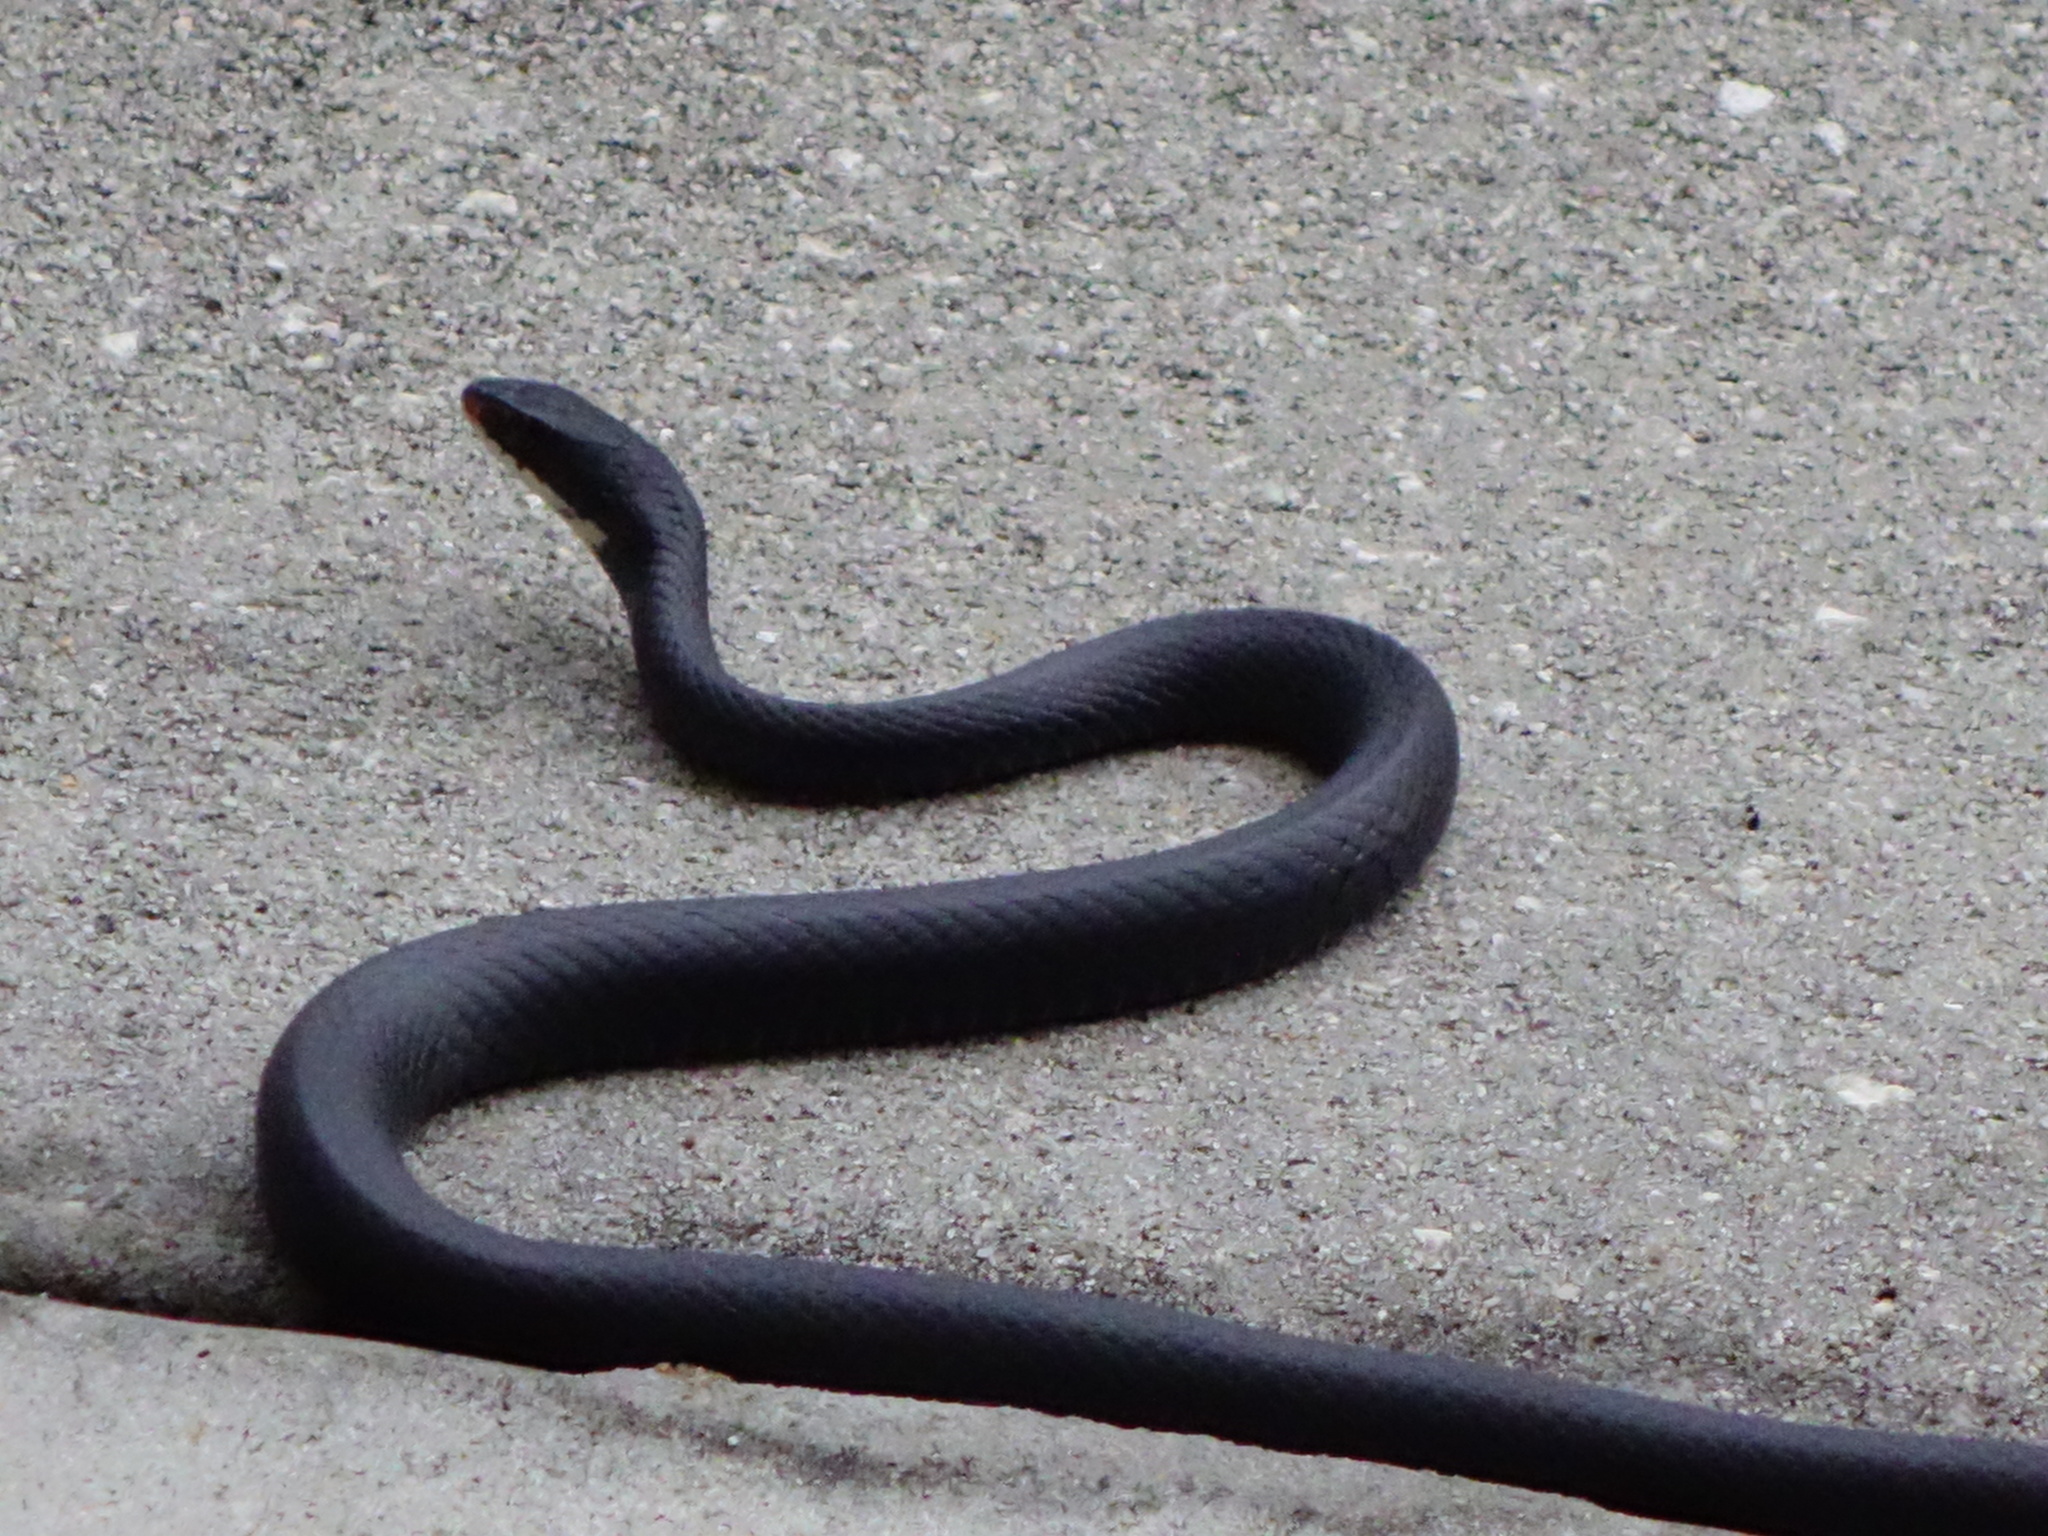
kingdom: Animalia
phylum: Chordata
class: Squamata
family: Colubridae
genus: Coluber
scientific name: Coluber constrictor
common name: Eastern racer
